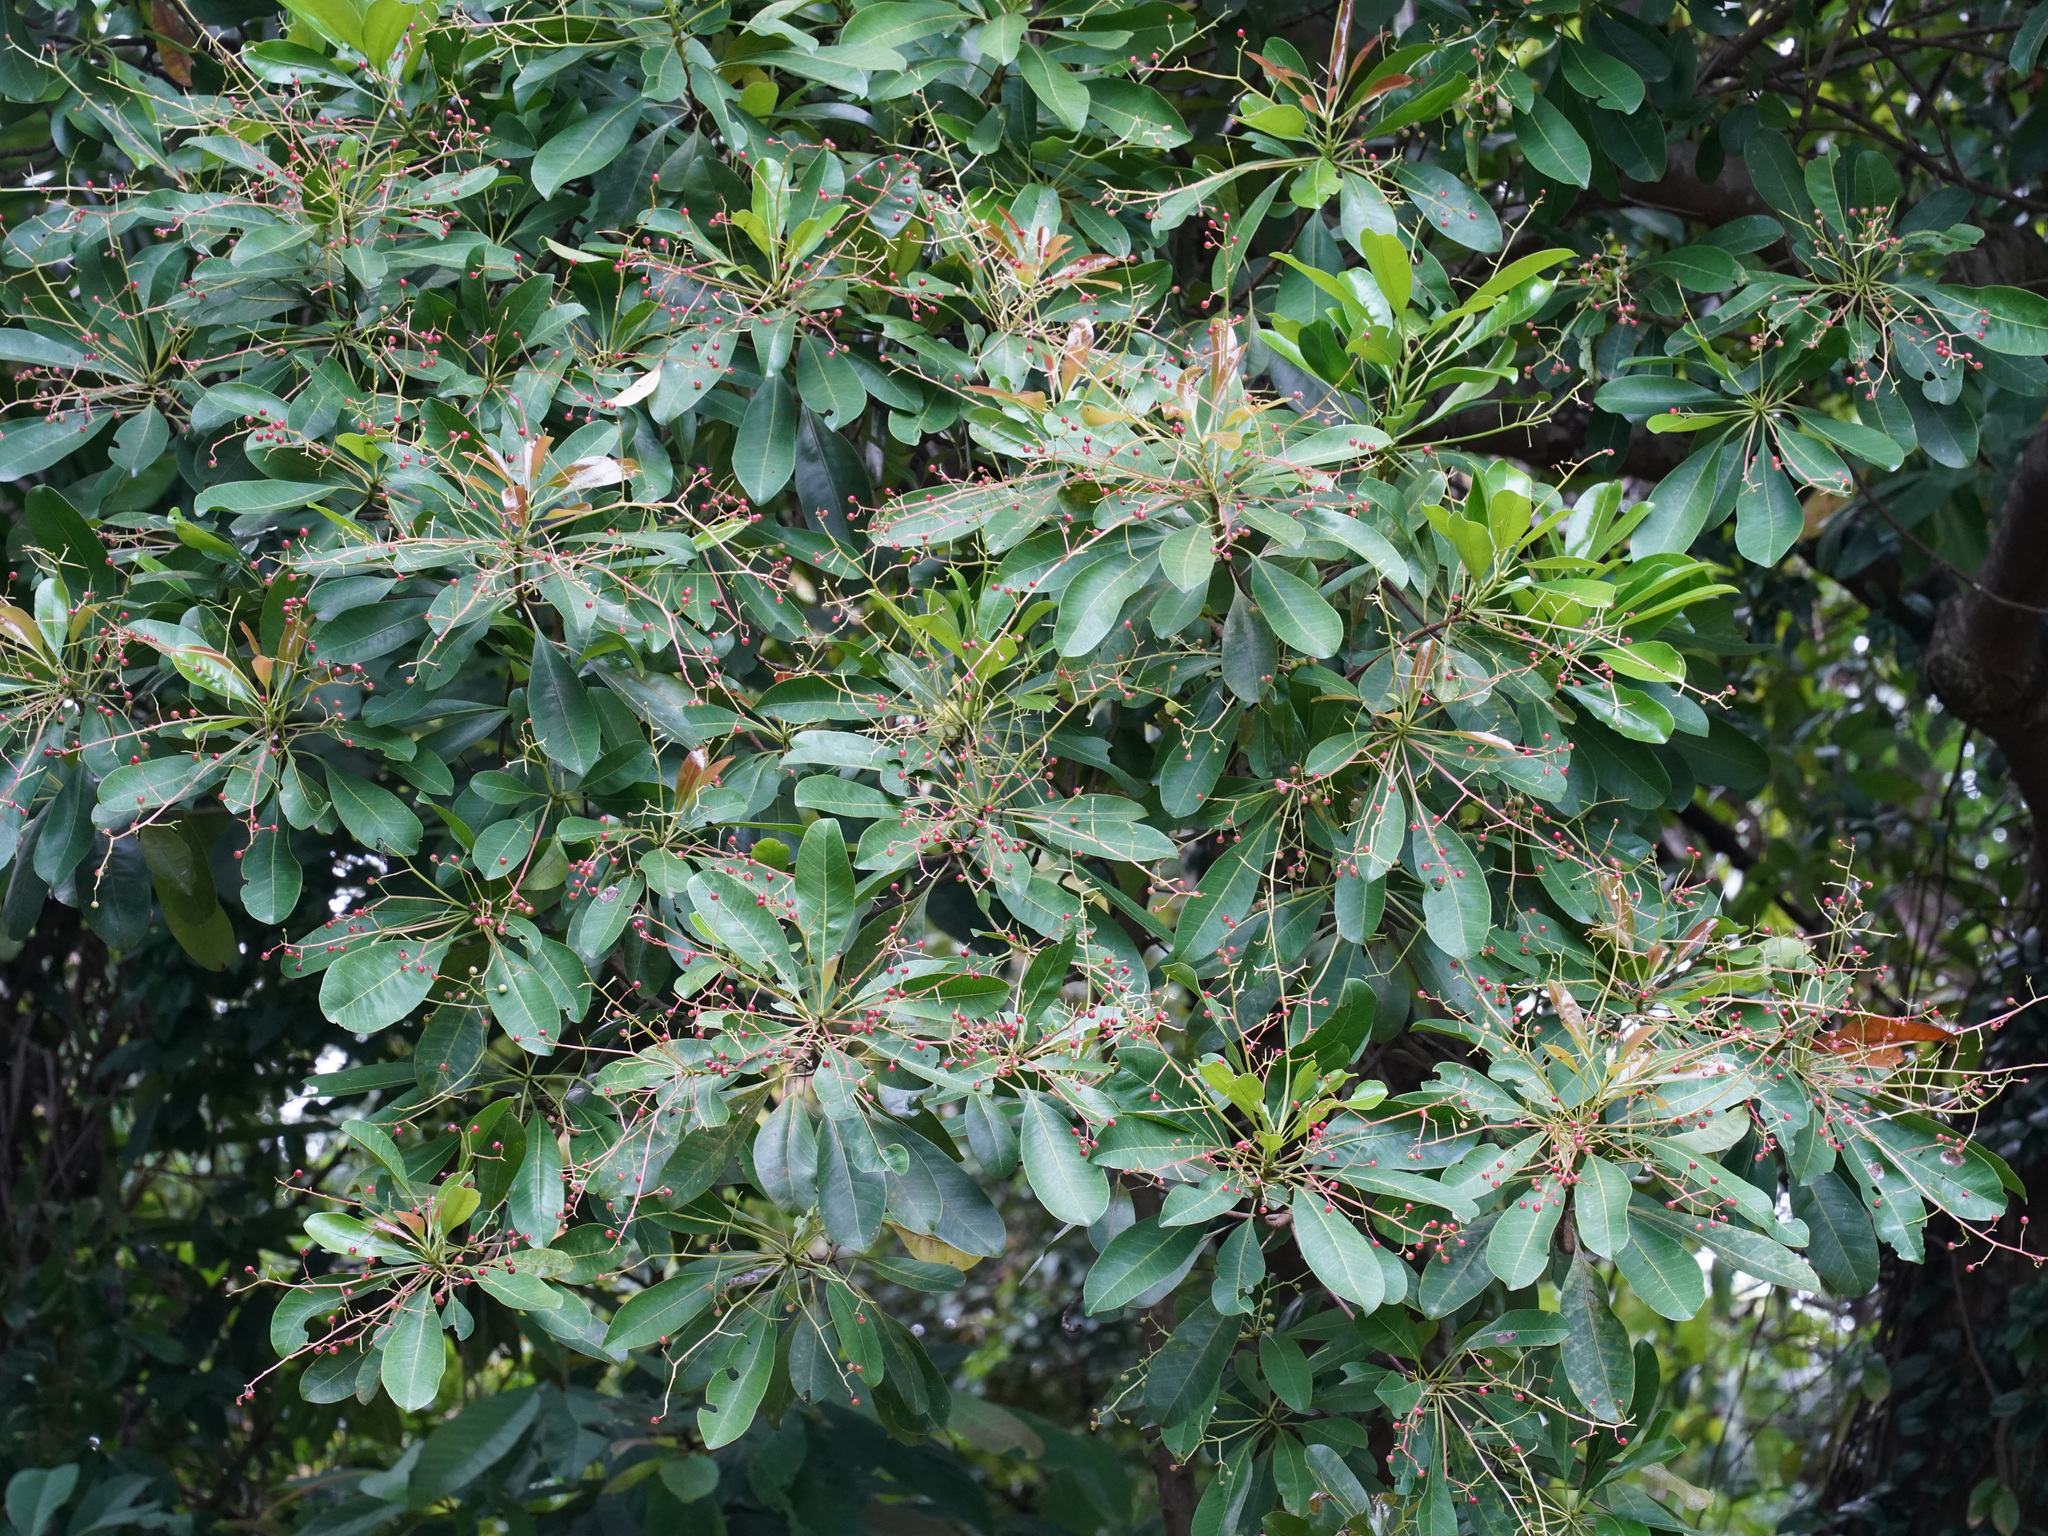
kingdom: Plantae
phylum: Tracheophyta
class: Magnoliopsida
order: Sapindales
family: Anacardiaceae
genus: Buchanania
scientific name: Buchanania arborescens
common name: Sparrow’s mango
